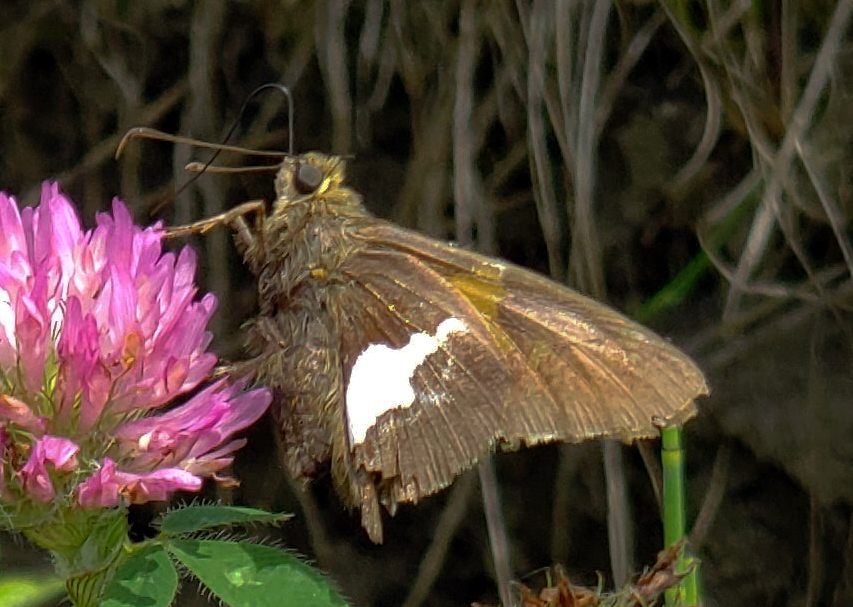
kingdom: Animalia
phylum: Arthropoda
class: Insecta
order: Lepidoptera
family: Hesperiidae
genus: Epargyreus
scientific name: Epargyreus clarus
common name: Silver-spotted skipper
